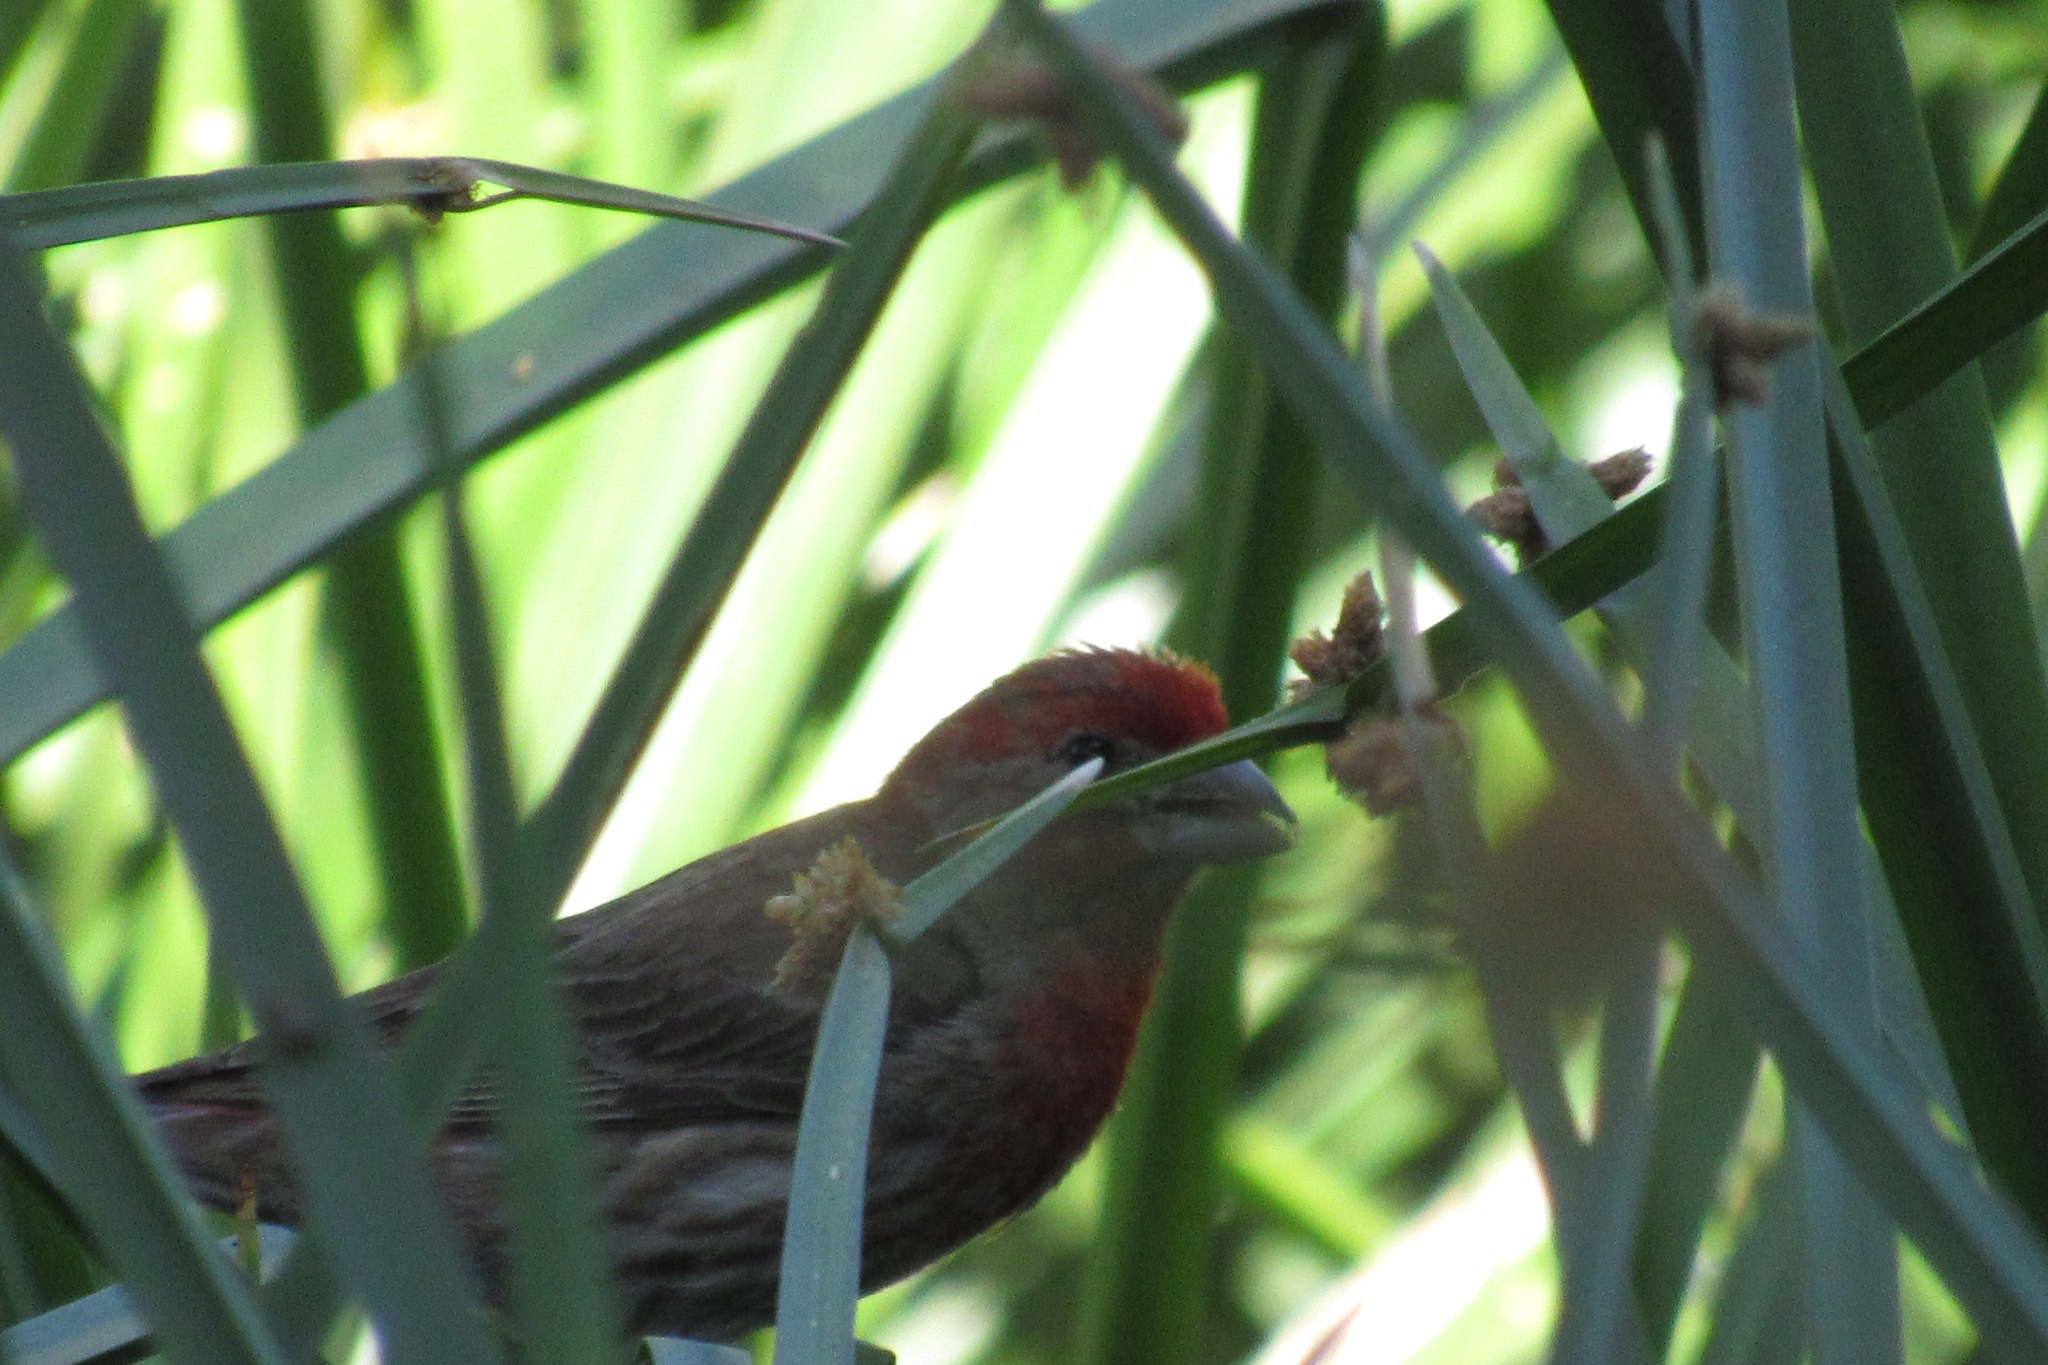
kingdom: Animalia
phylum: Chordata
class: Aves
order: Passeriformes
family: Fringillidae
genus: Haemorhous
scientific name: Haemorhous mexicanus
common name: House finch
